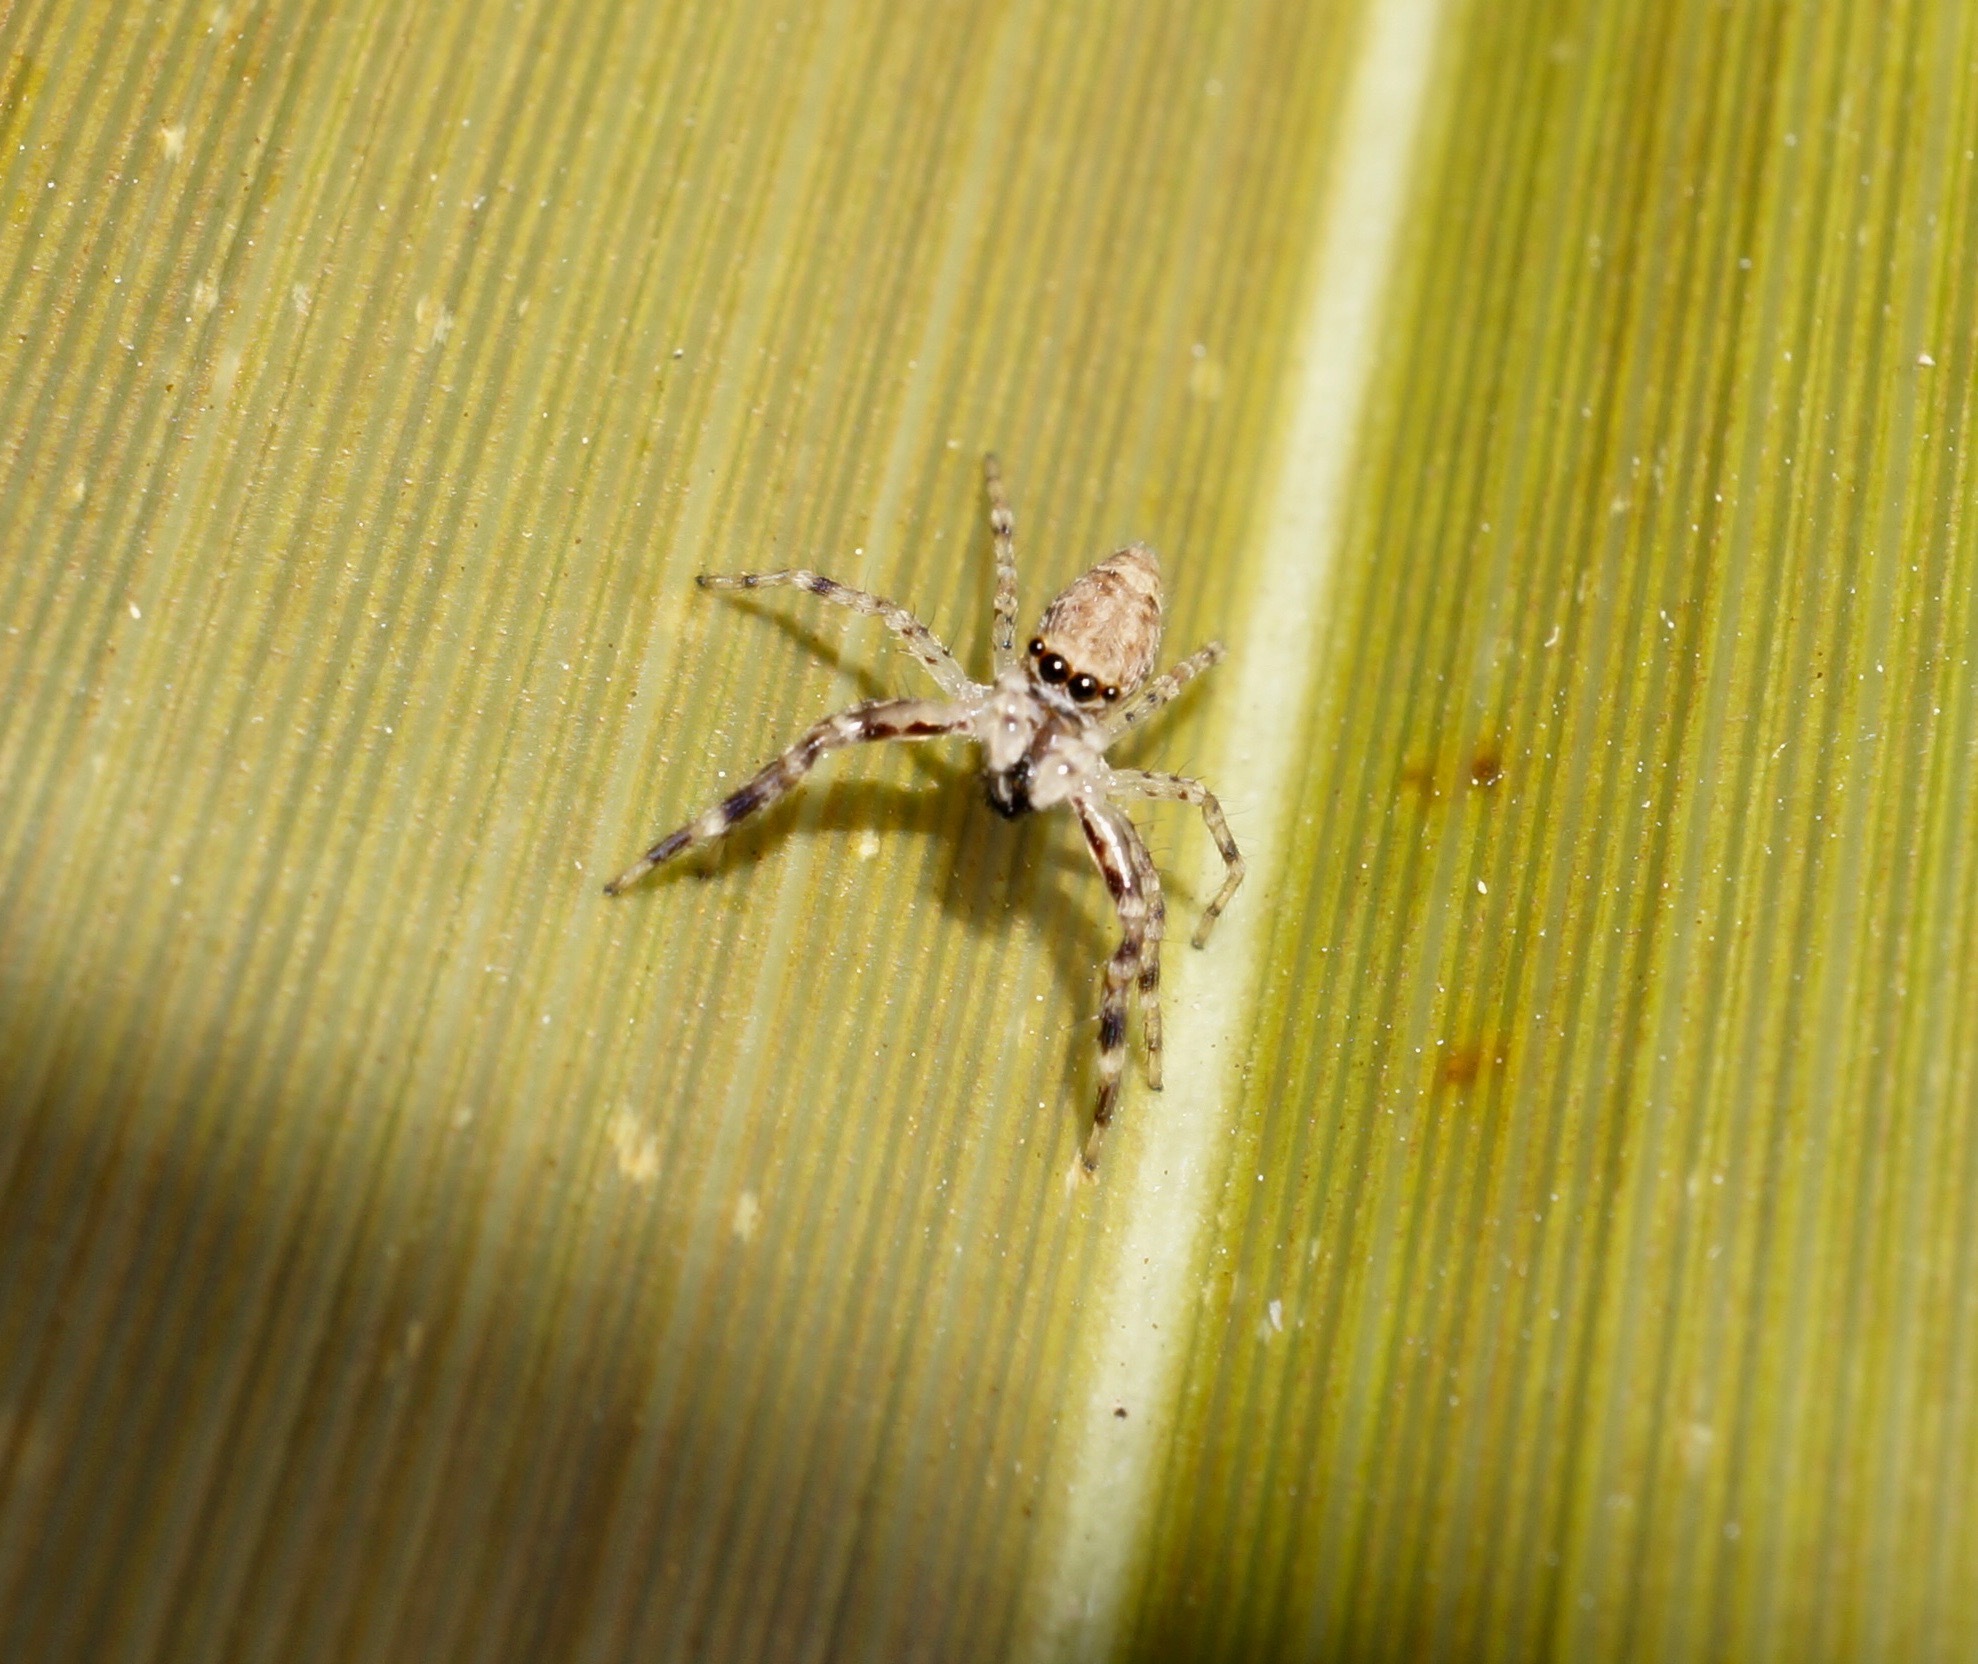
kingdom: Animalia
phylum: Arthropoda
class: Arachnida
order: Araneae
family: Salticidae
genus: Helpis
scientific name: Helpis minitabunda
